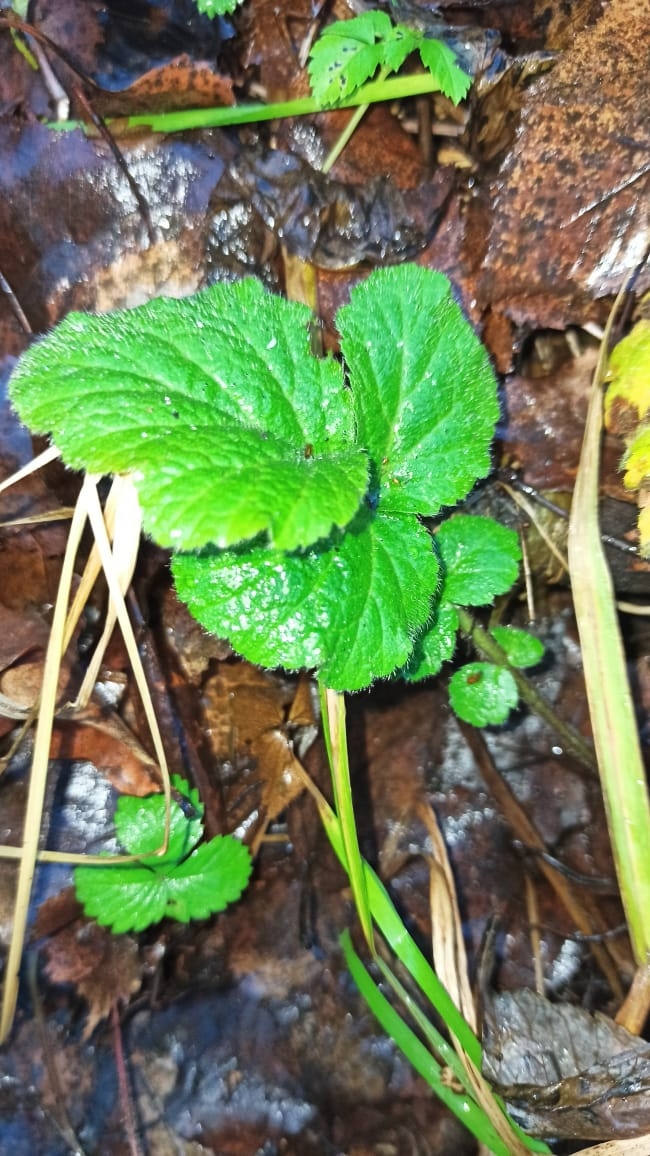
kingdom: Plantae
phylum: Tracheophyta
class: Magnoliopsida
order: Rosales
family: Rosaceae
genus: Geum
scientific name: Geum
